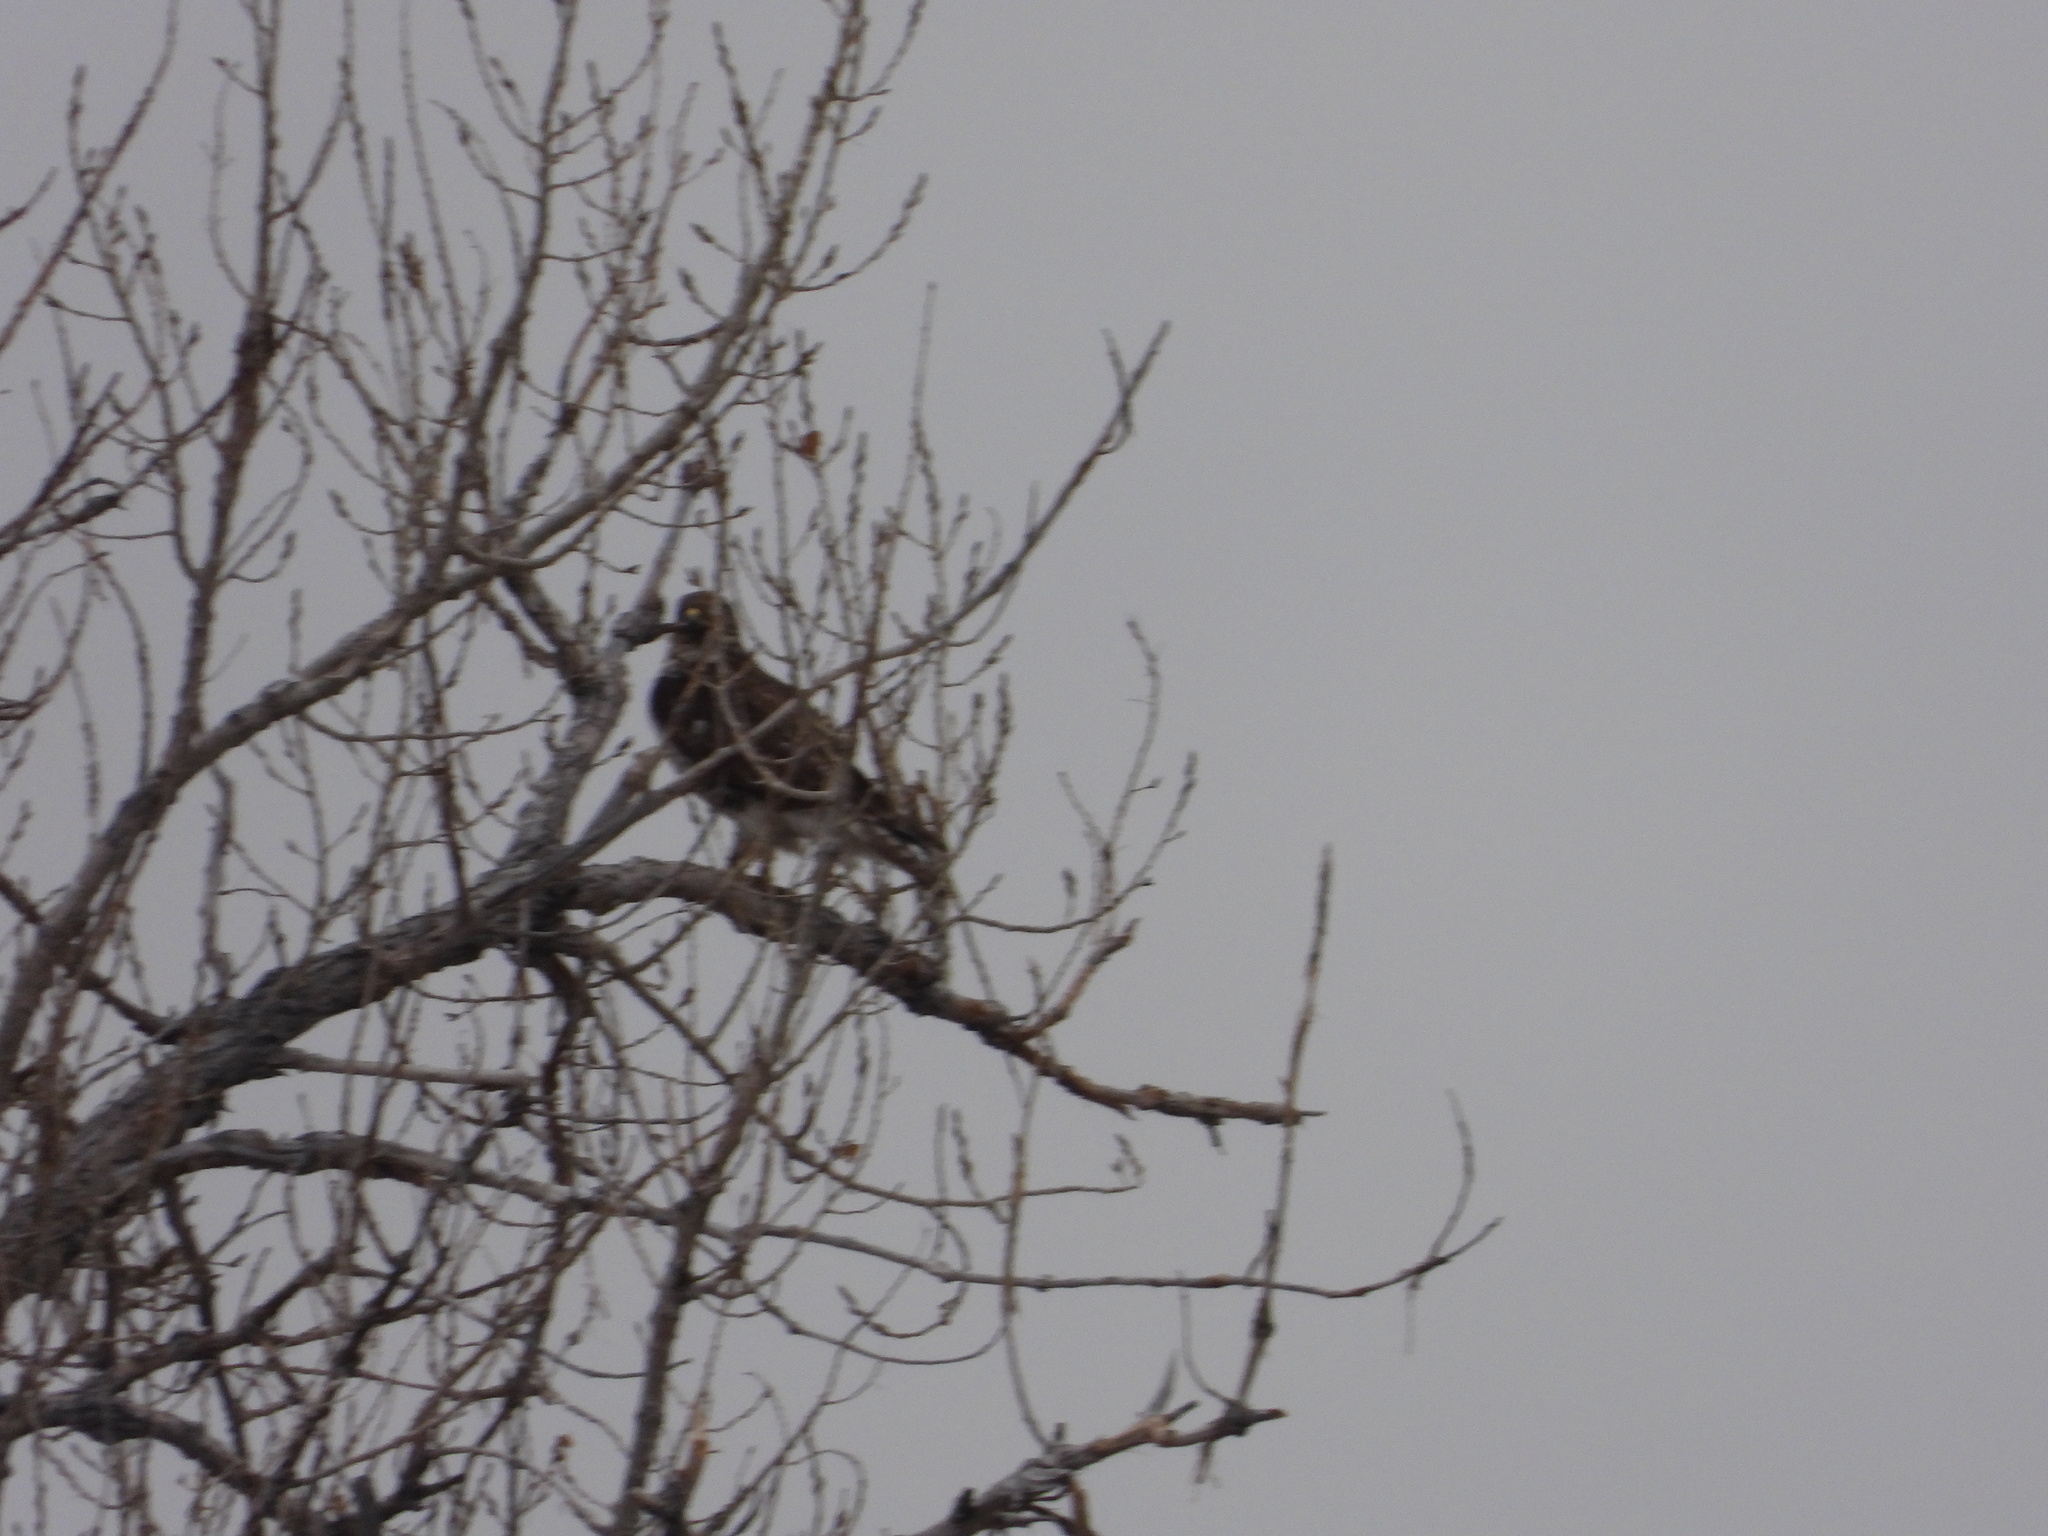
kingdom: Animalia
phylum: Chordata
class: Aves
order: Accipitriformes
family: Accipitridae
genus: Buteo
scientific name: Buteo jamaicensis
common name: Red-tailed hawk
